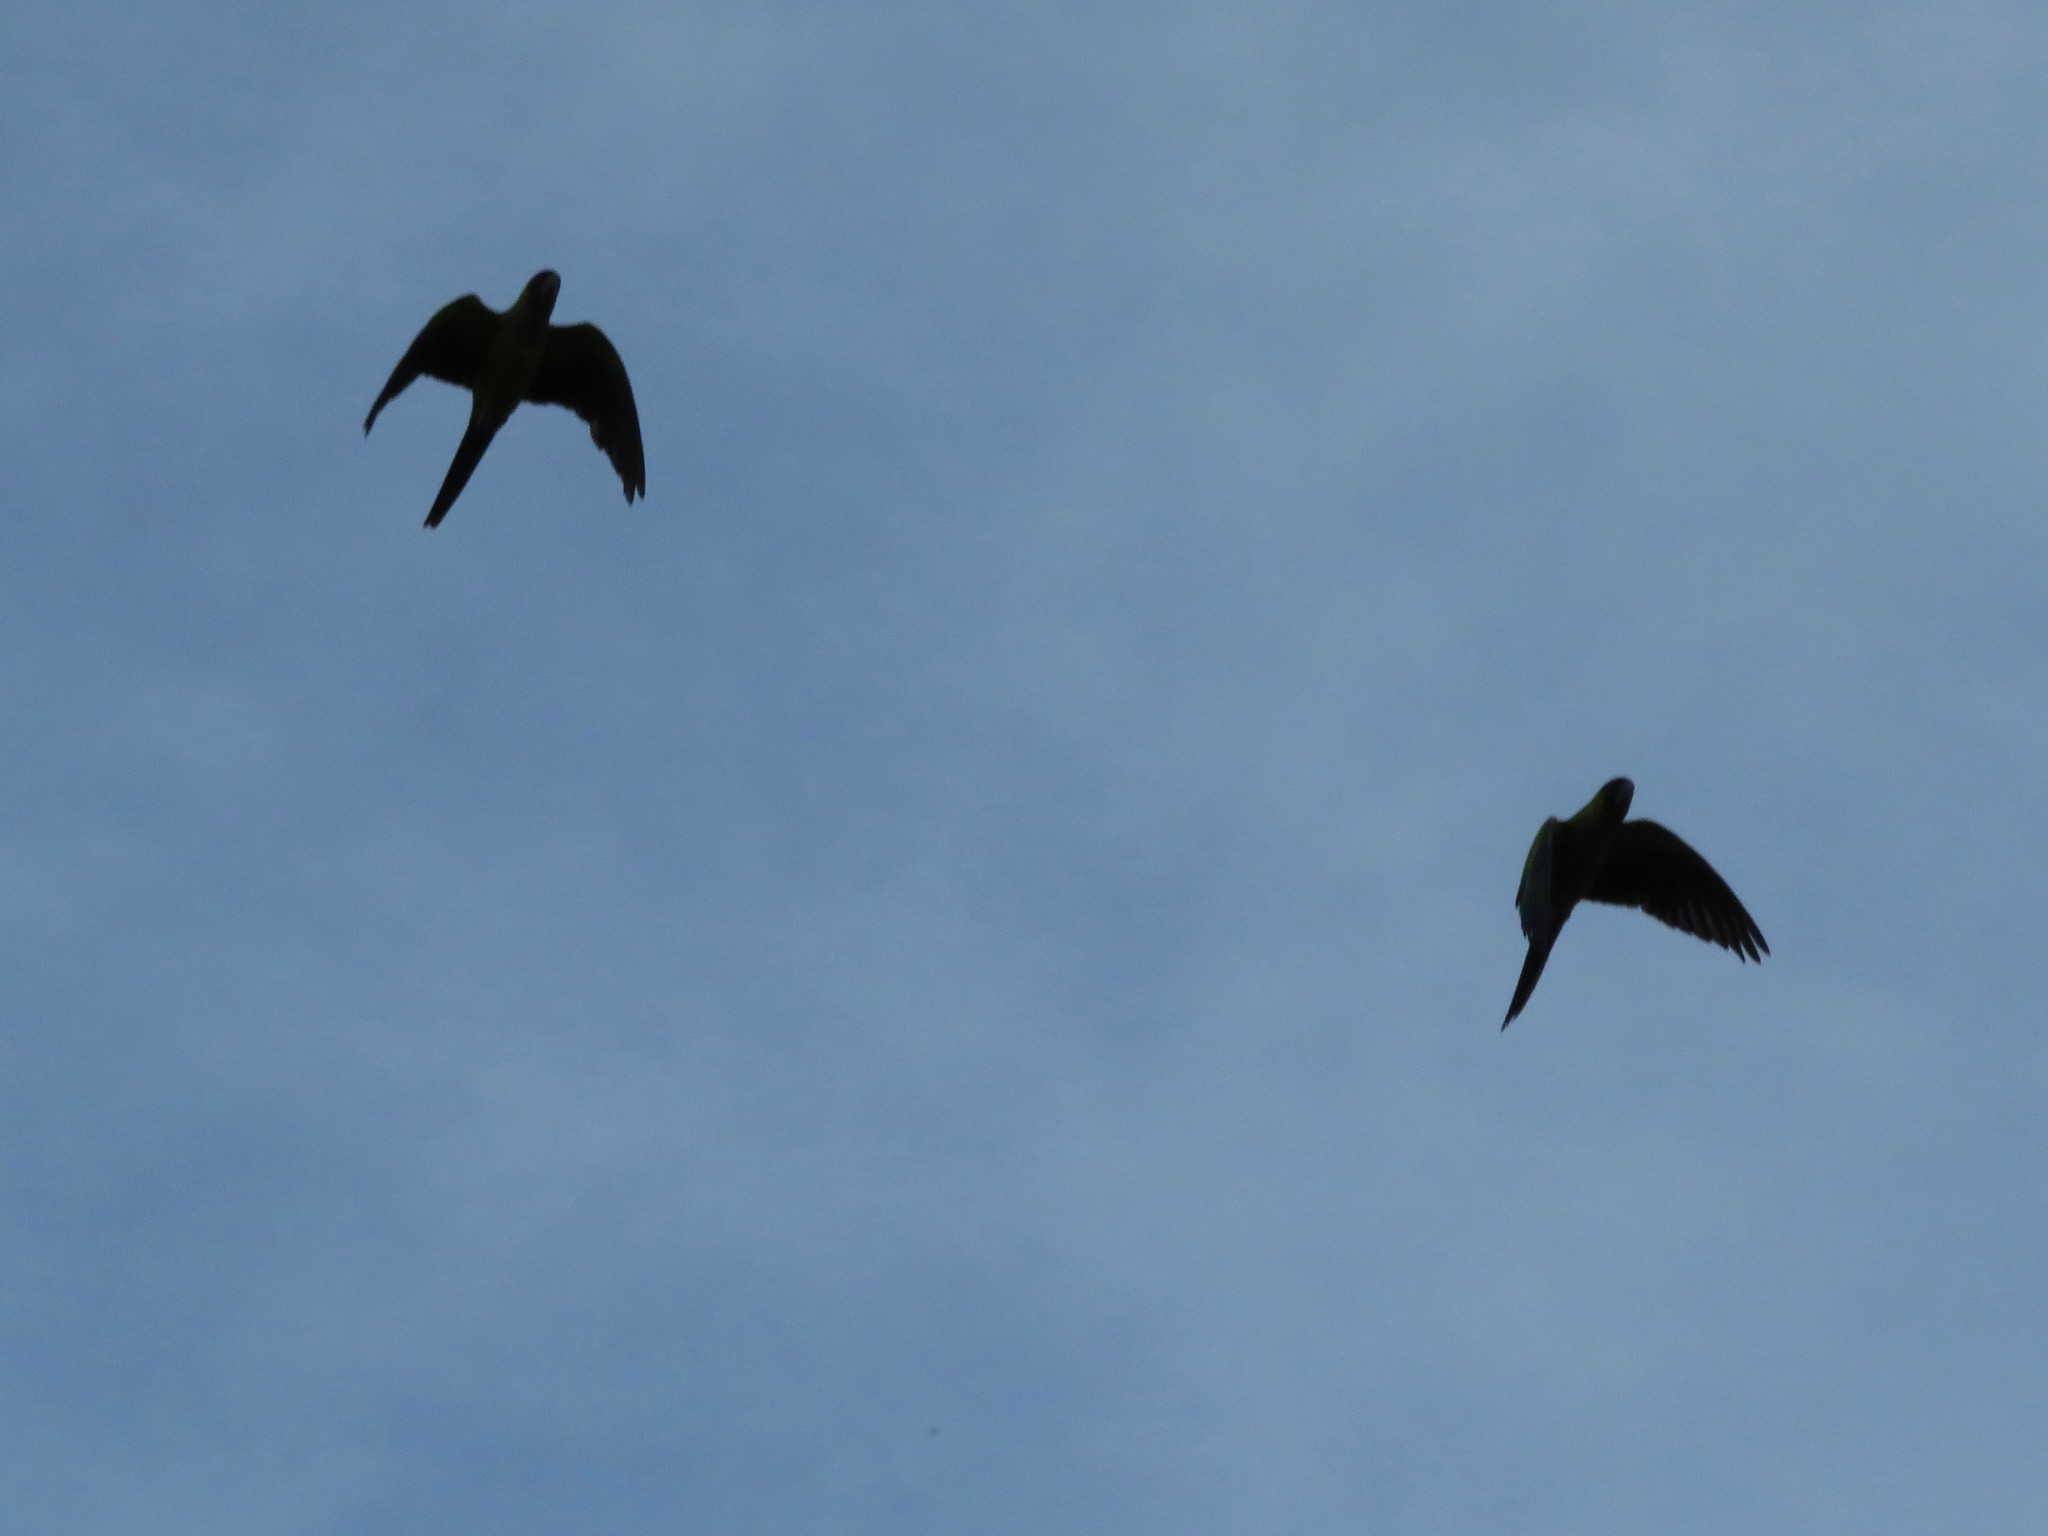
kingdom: Animalia
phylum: Chordata
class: Aves
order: Psittaciformes
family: Psittacidae
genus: Nandayus
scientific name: Nandayus nenday
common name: Nanday parakeet
